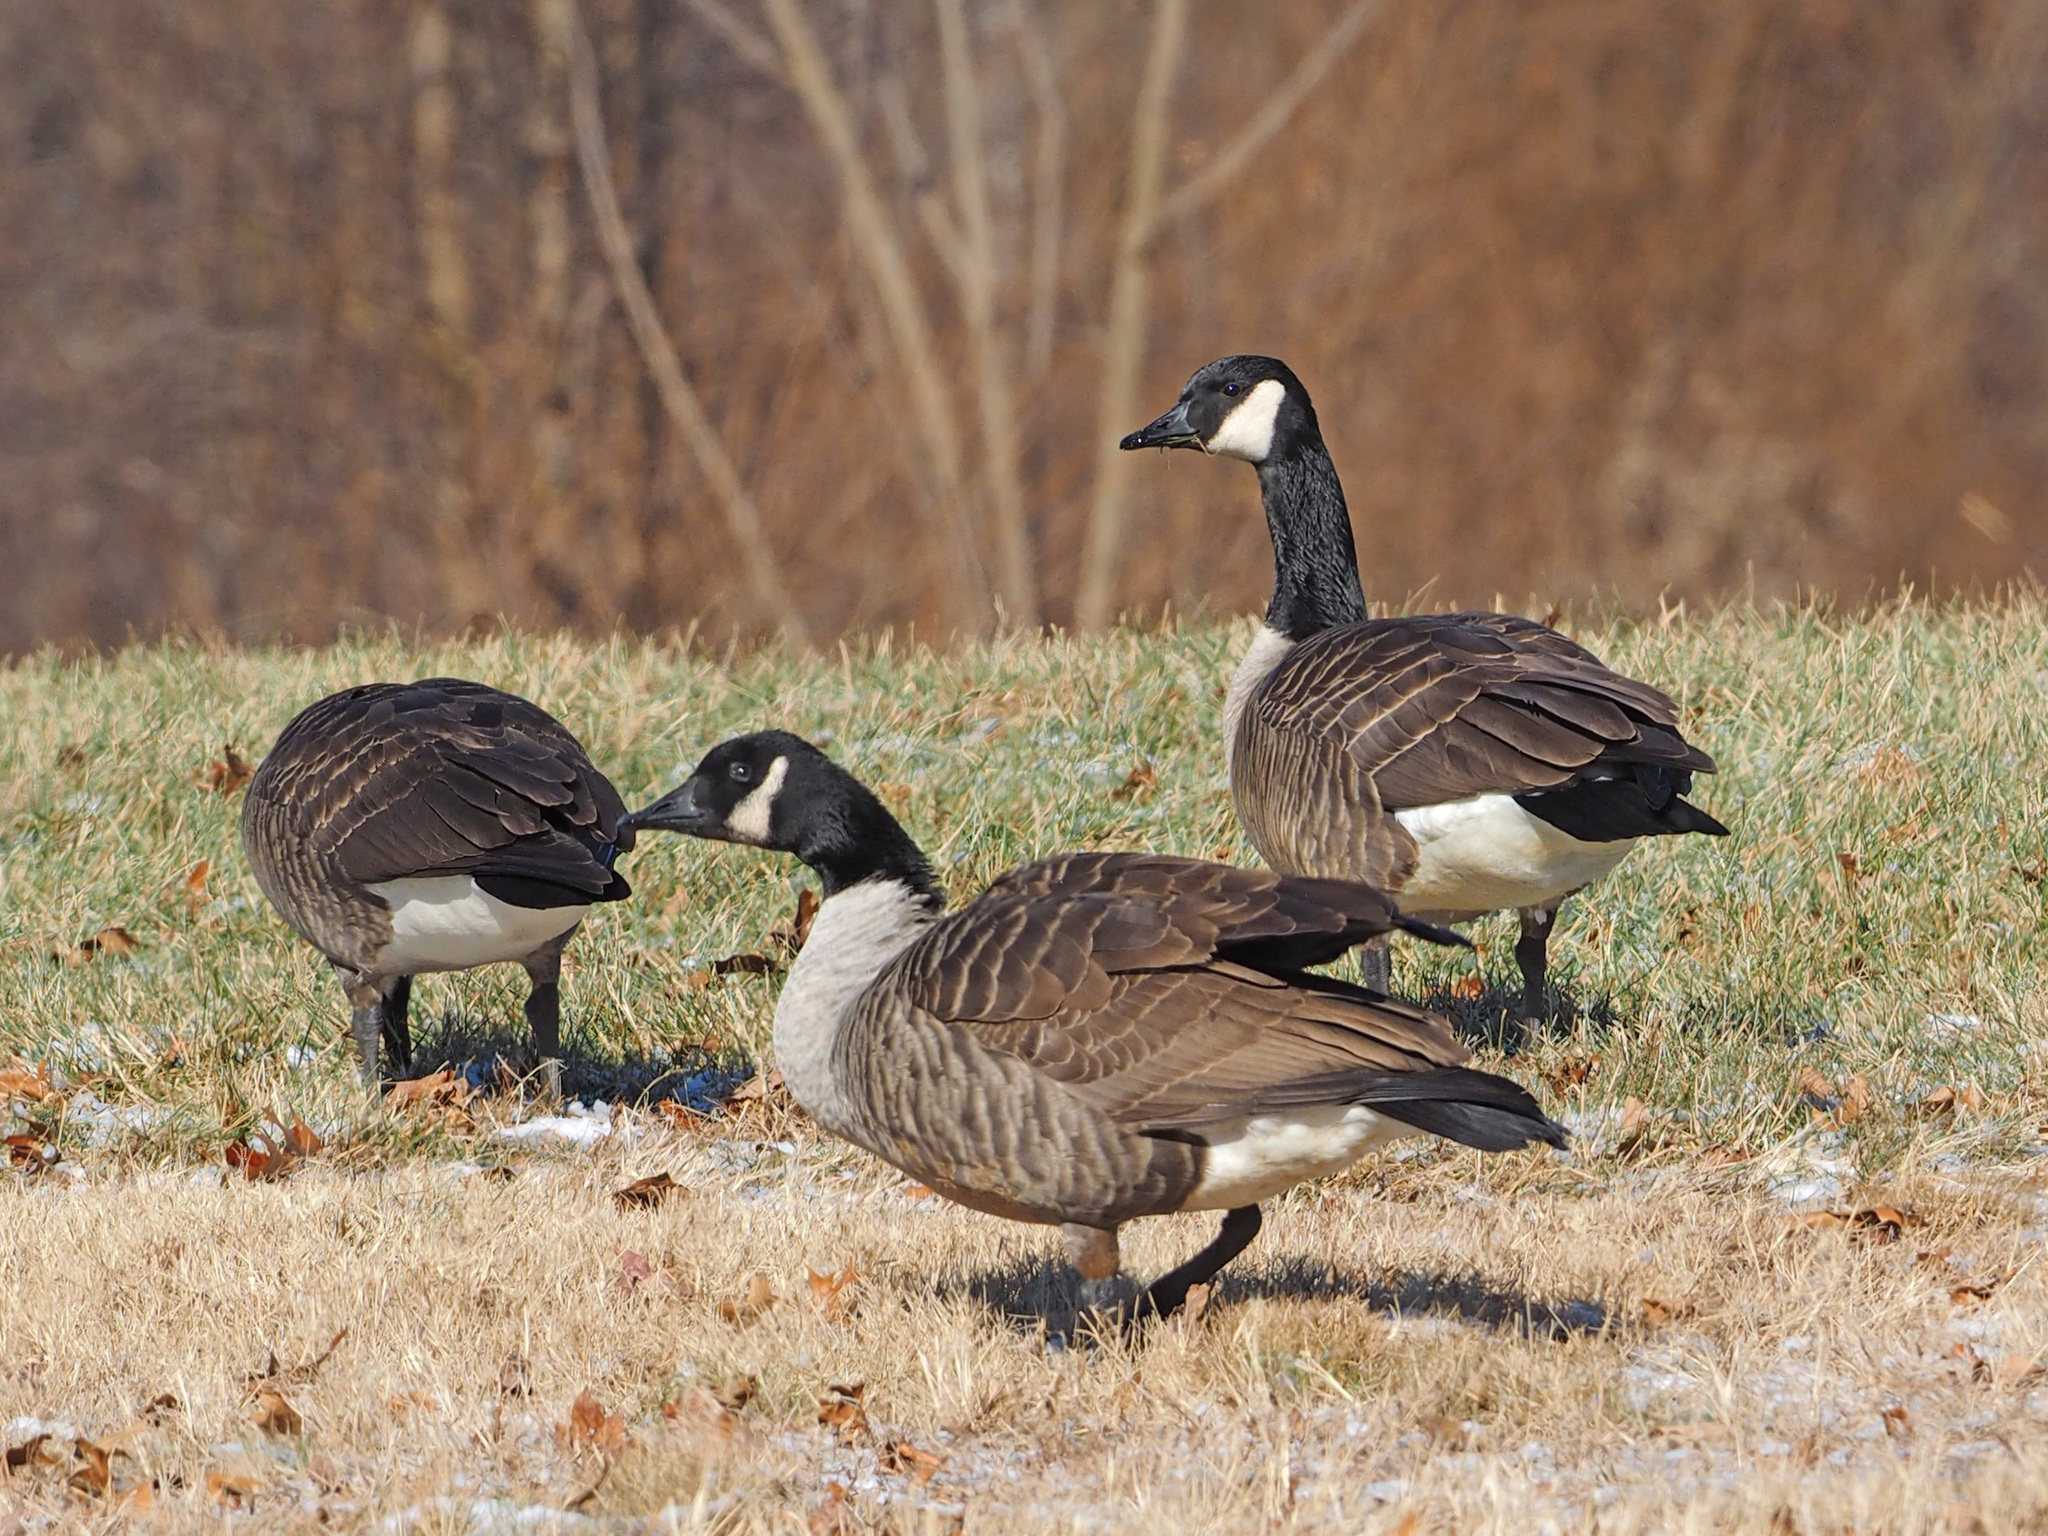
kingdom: Animalia
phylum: Chordata
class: Aves
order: Anseriformes
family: Anatidae
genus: Branta
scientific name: Branta canadensis
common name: Canada goose
